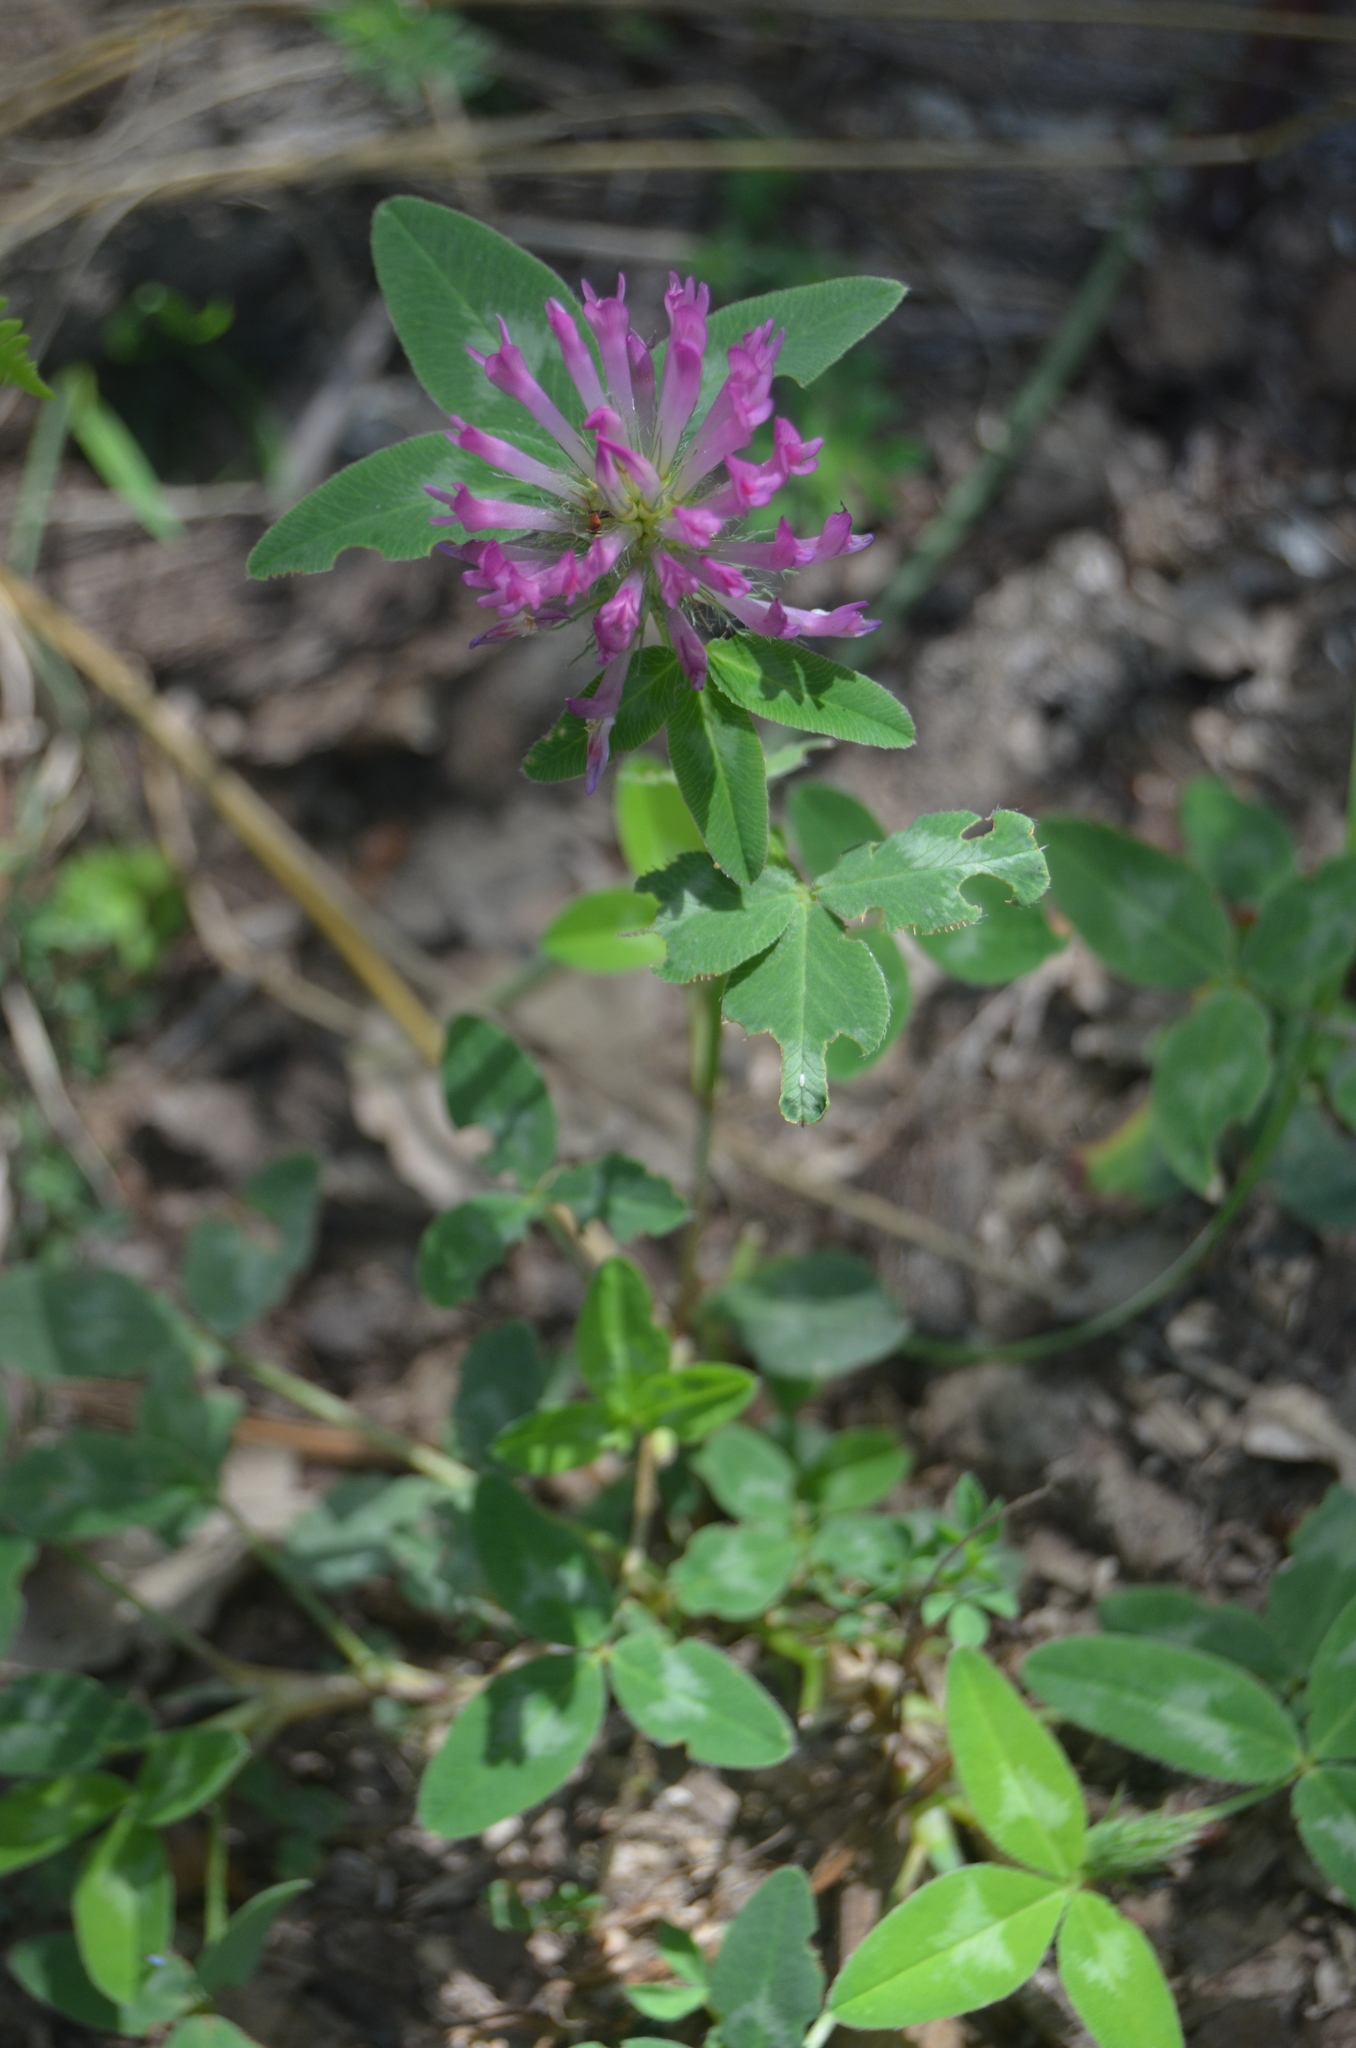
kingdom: Plantae
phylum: Tracheophyta
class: Magnoliopsida
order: Fabales
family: Fabaceae
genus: Trifolium
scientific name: Trifolium pratense
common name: Red clover
